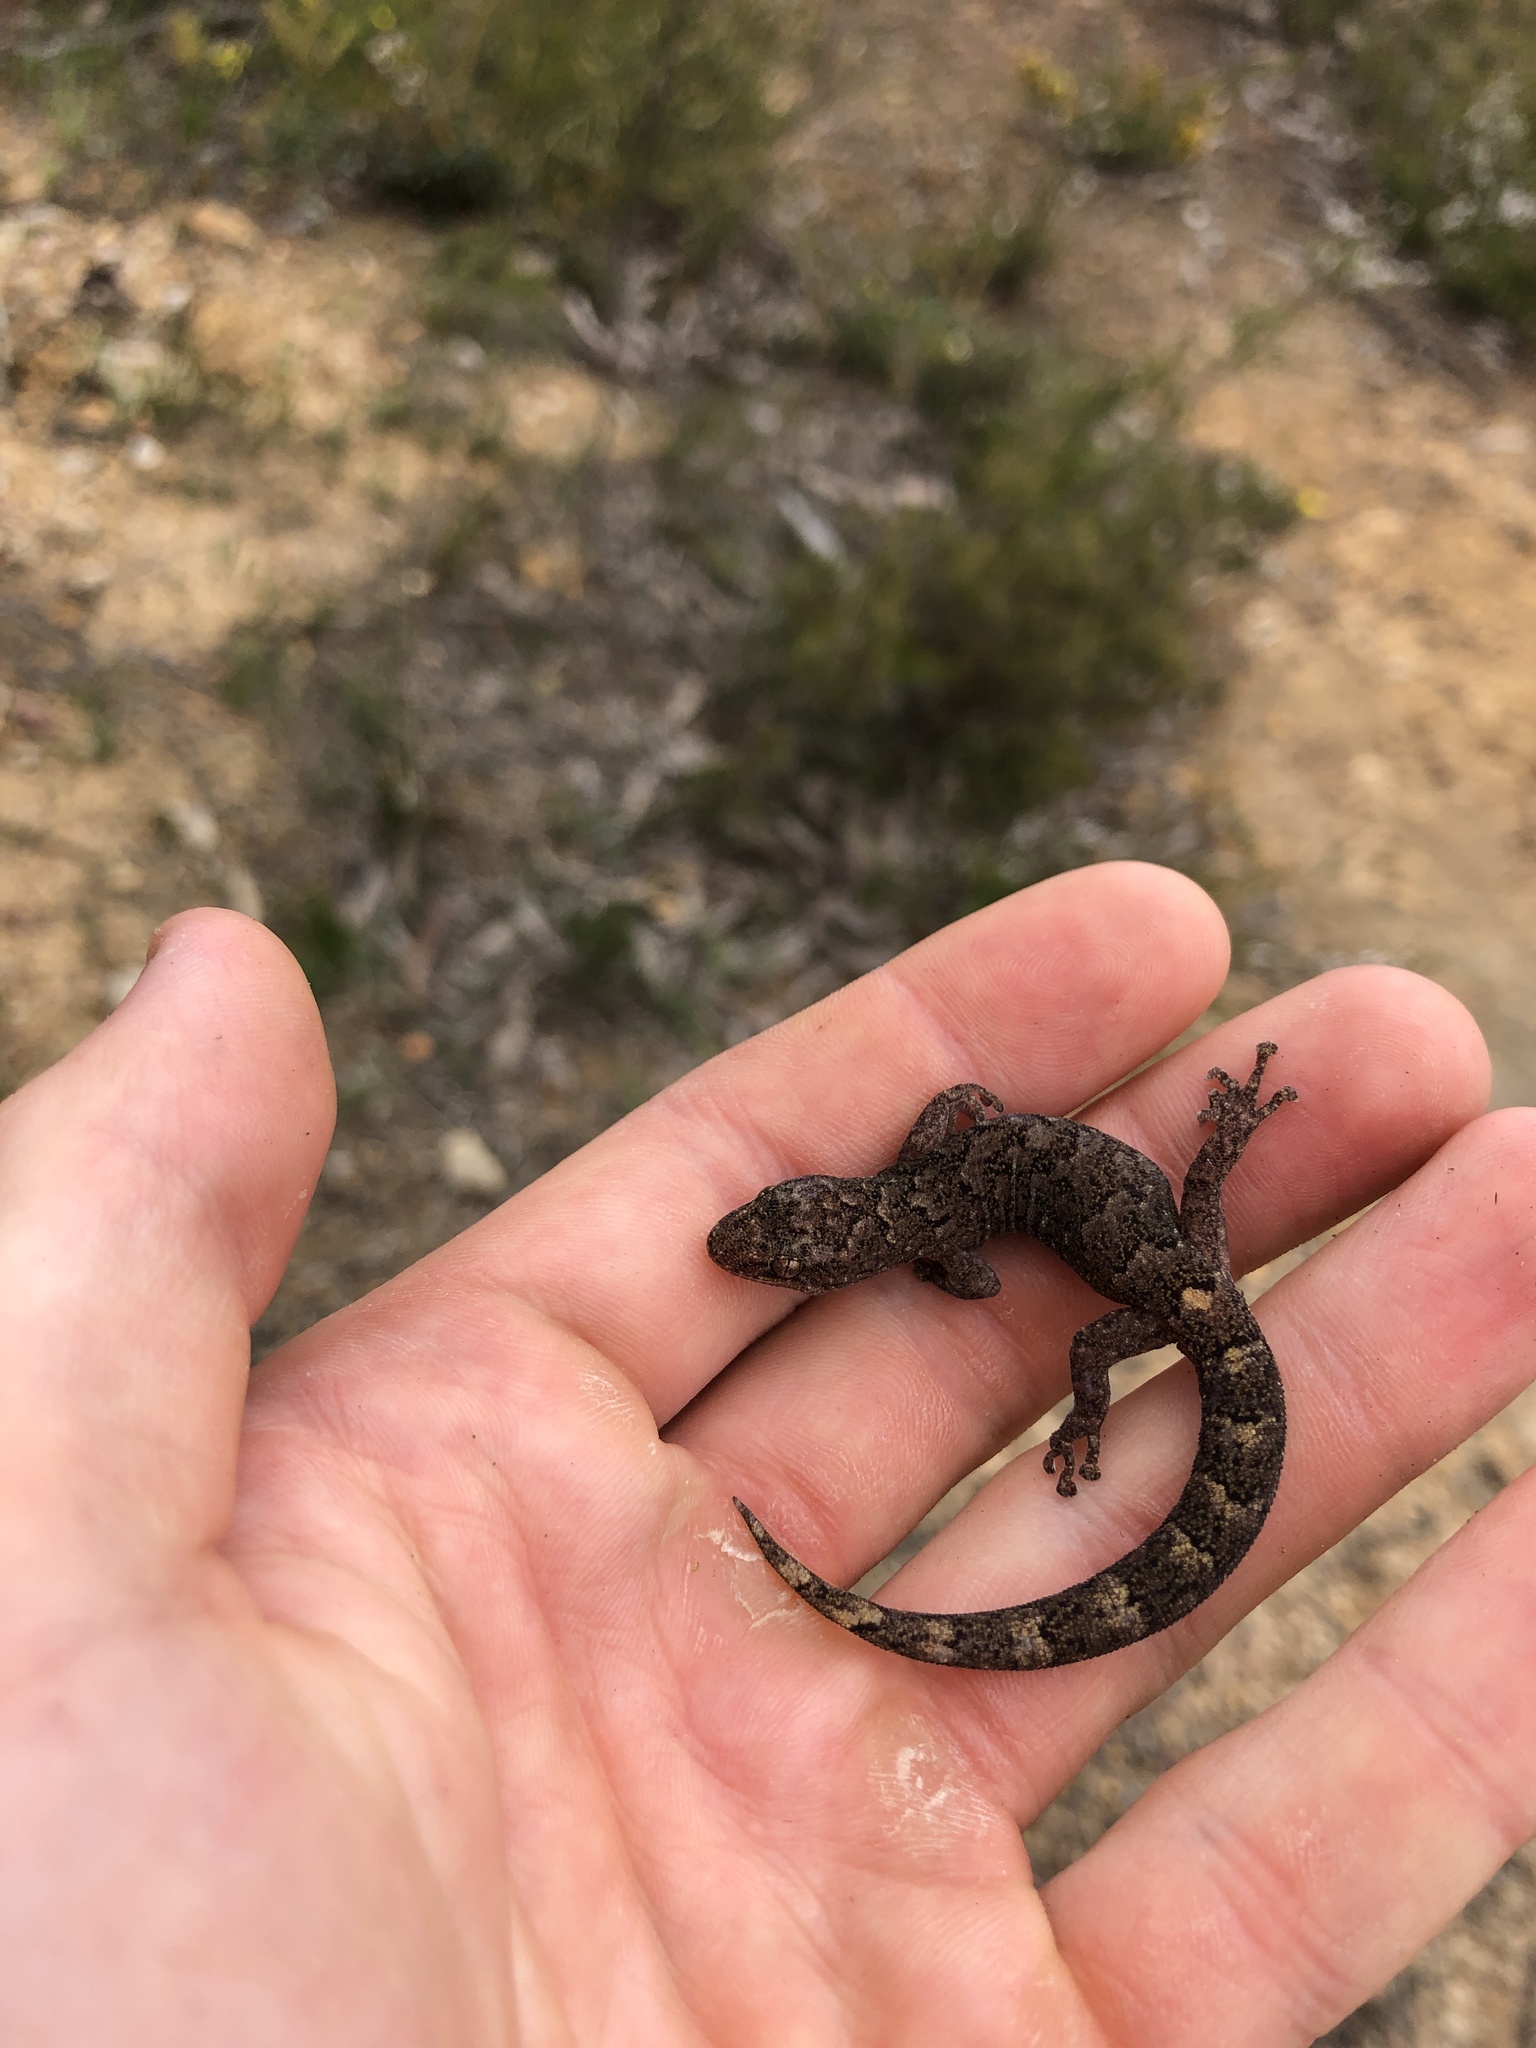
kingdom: Animalia
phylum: Chordata
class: Squamata
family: Gekkonidae
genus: Christinus
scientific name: Christinus marmoratus
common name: Marbled gecko
